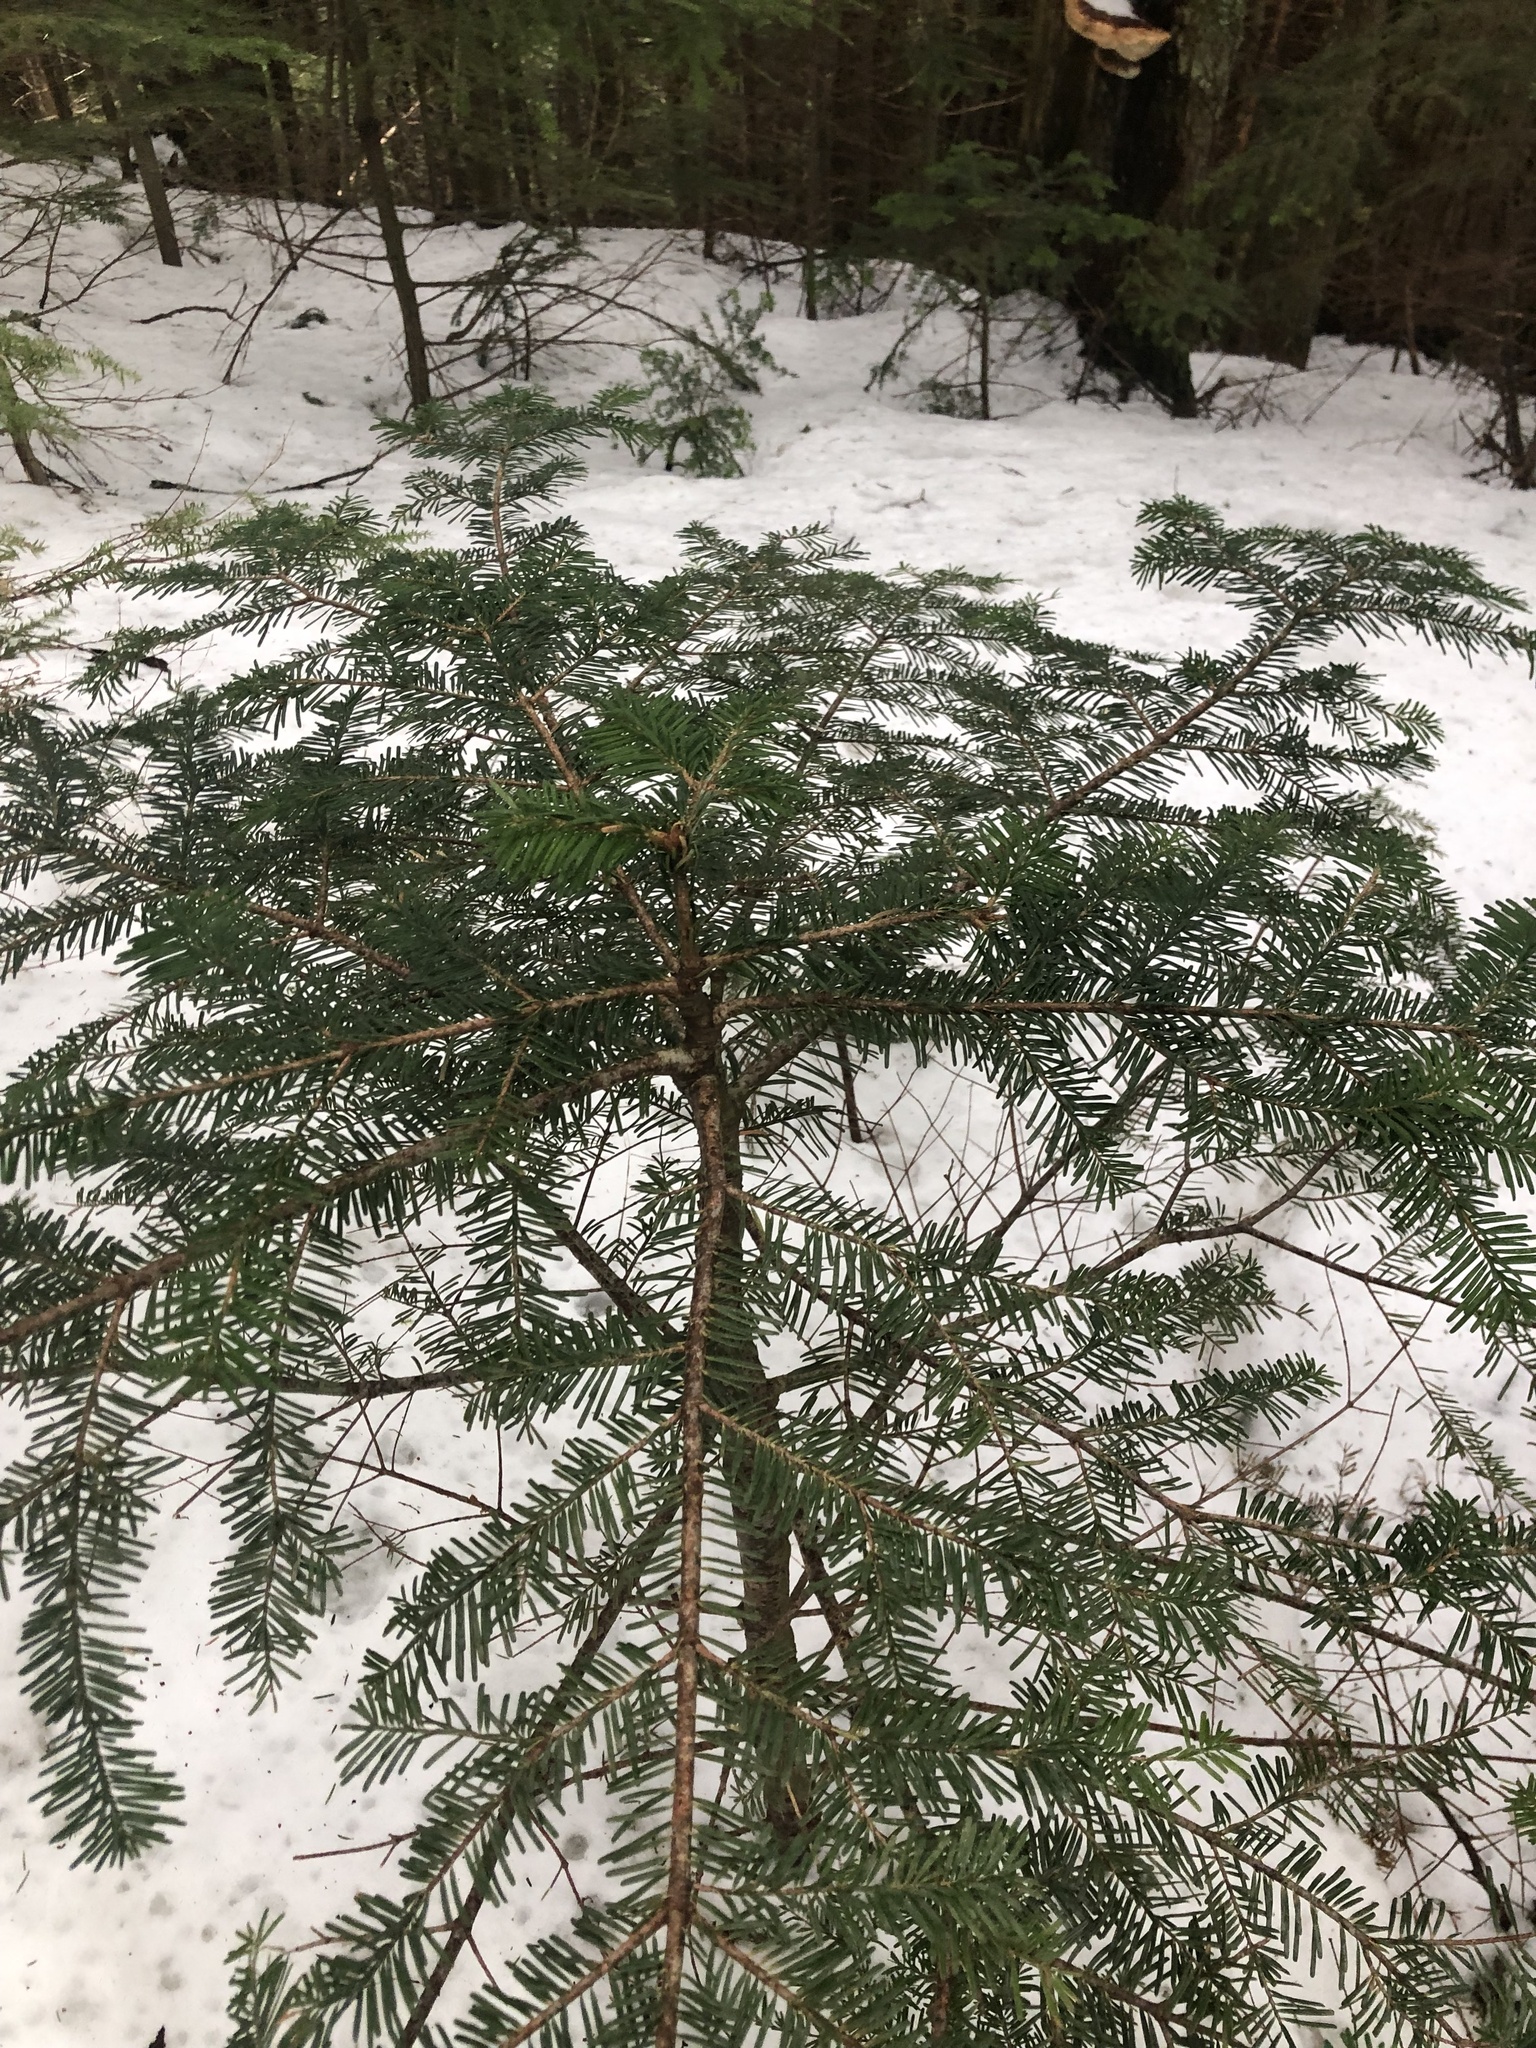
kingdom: Plantae
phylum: Tracheophyta
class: Pinopsida
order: Pinales
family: Pinaceae
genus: Abies
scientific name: Abies amabilis
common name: Pacific silver fir
